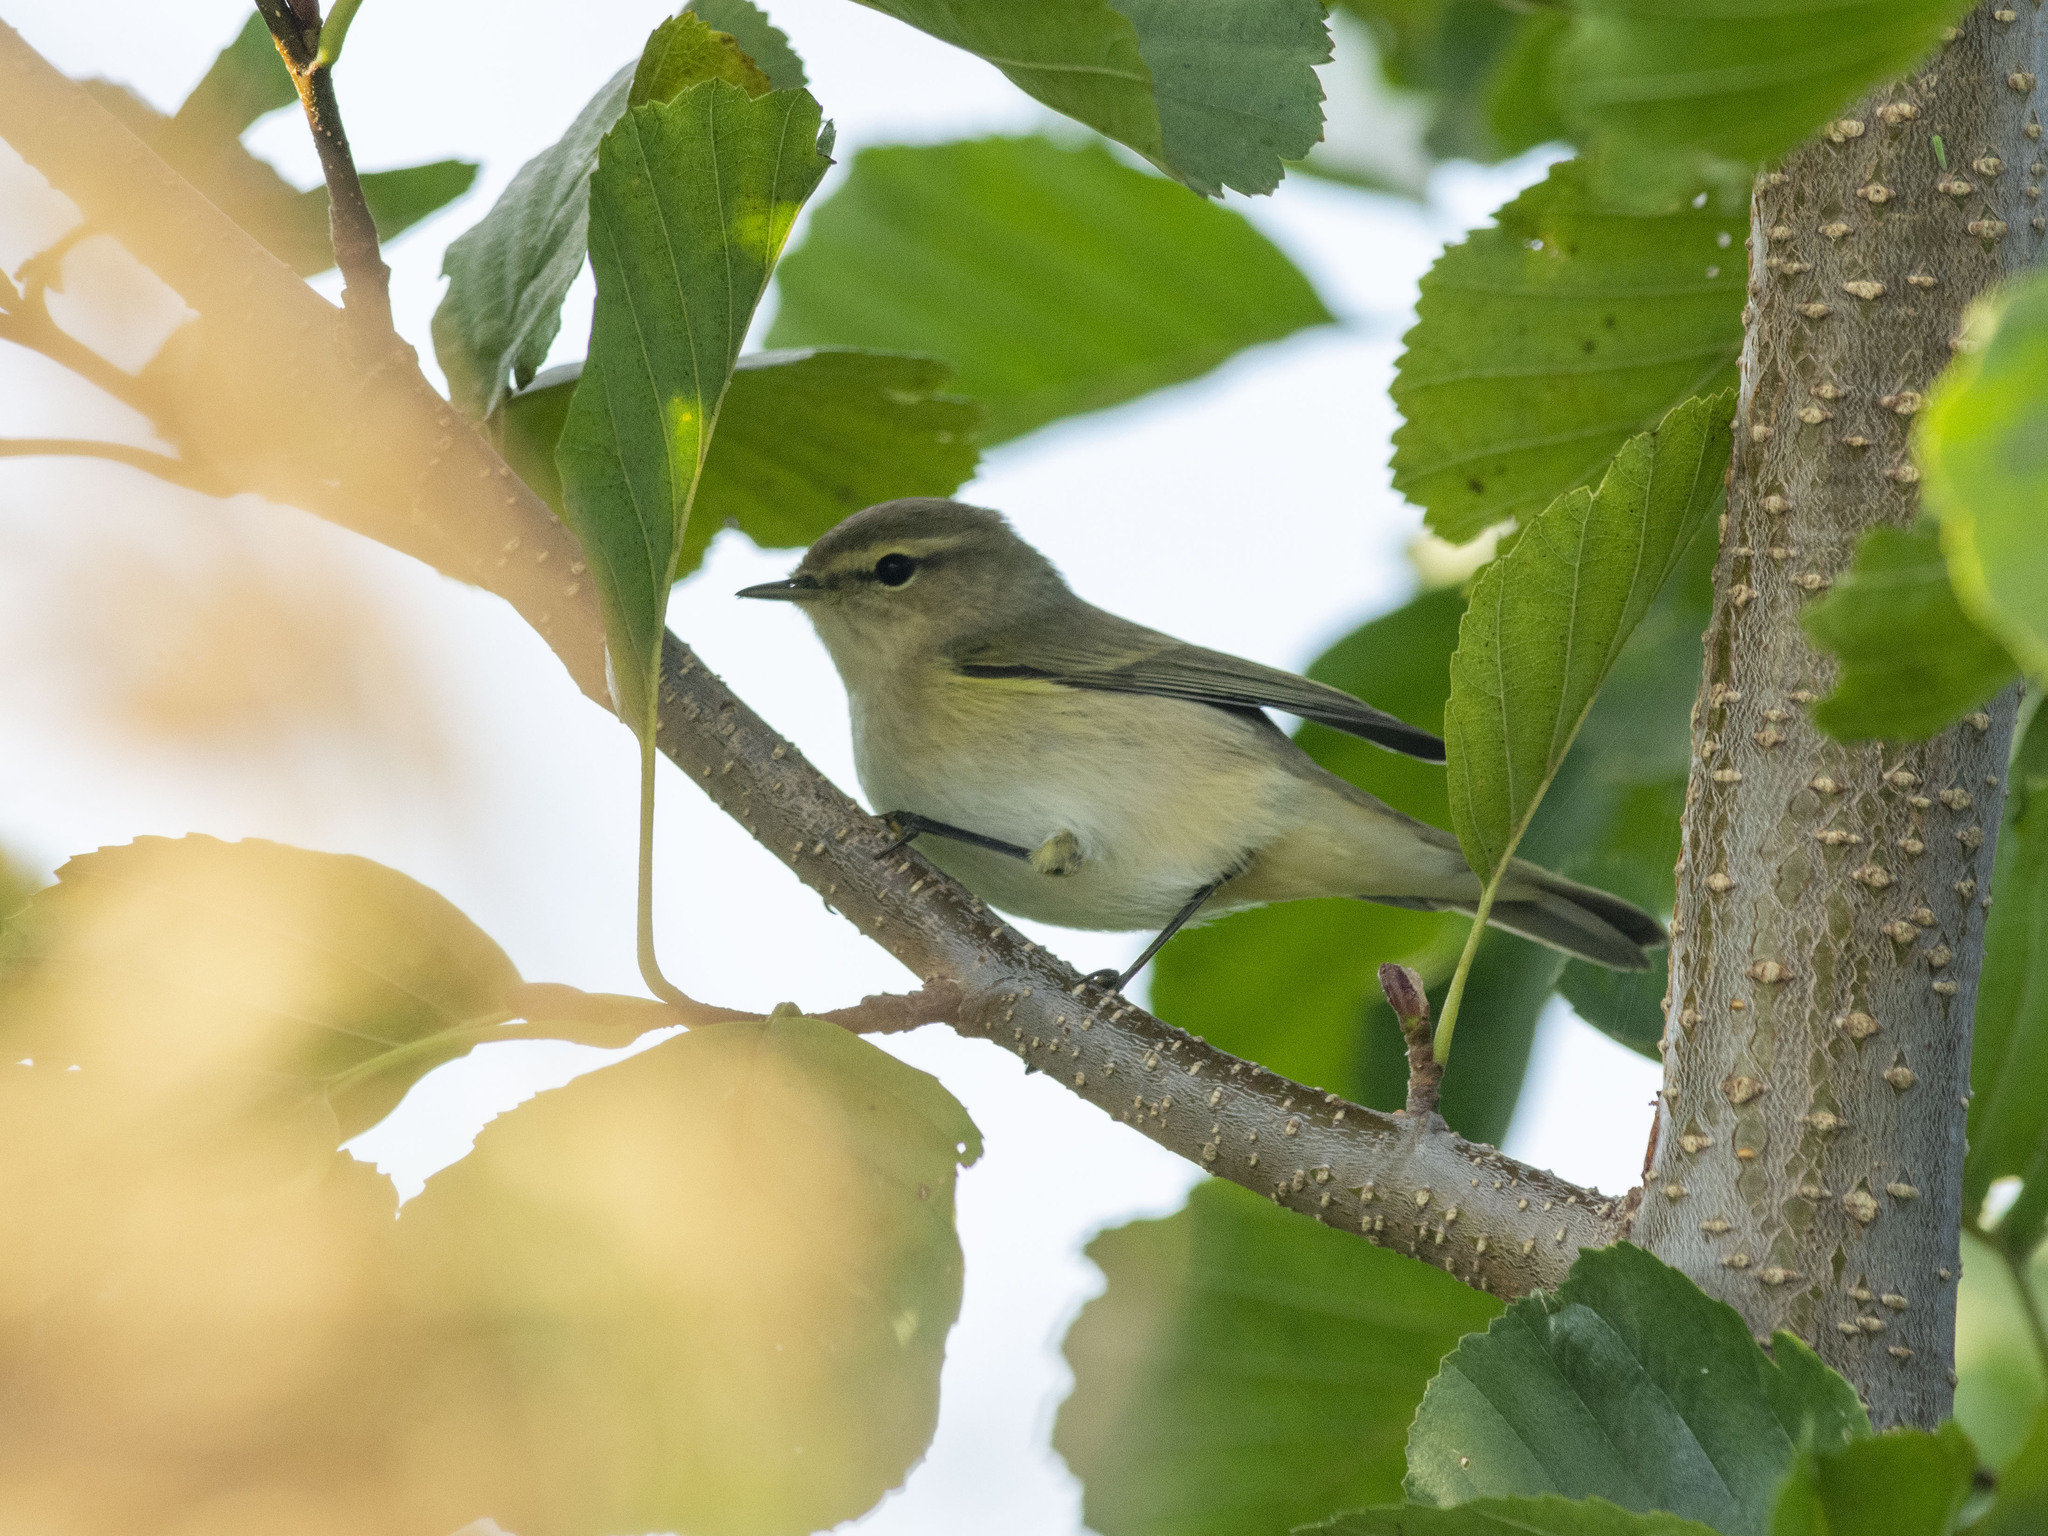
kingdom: Animalia
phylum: Chordata
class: Aves
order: Passeriformes
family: Phylloscopidae
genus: Phylloscopus
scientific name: Phylloscopus collybita
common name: Common chiffchaff
